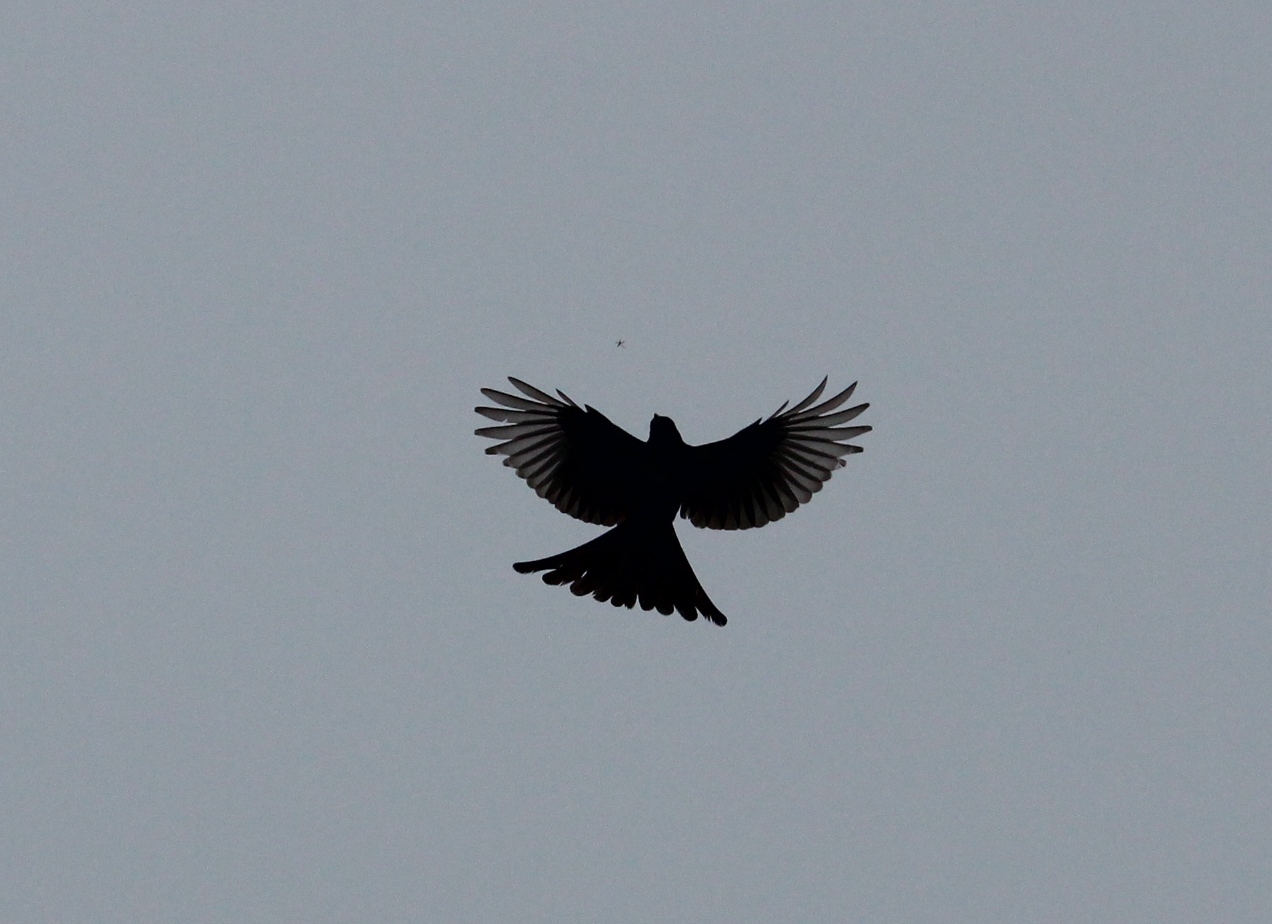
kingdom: Animalia
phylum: Chordata
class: Aves
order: Passeriformes
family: Dicruridae
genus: Dicrurus
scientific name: Dicrurus macrocercus
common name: Black drongo
